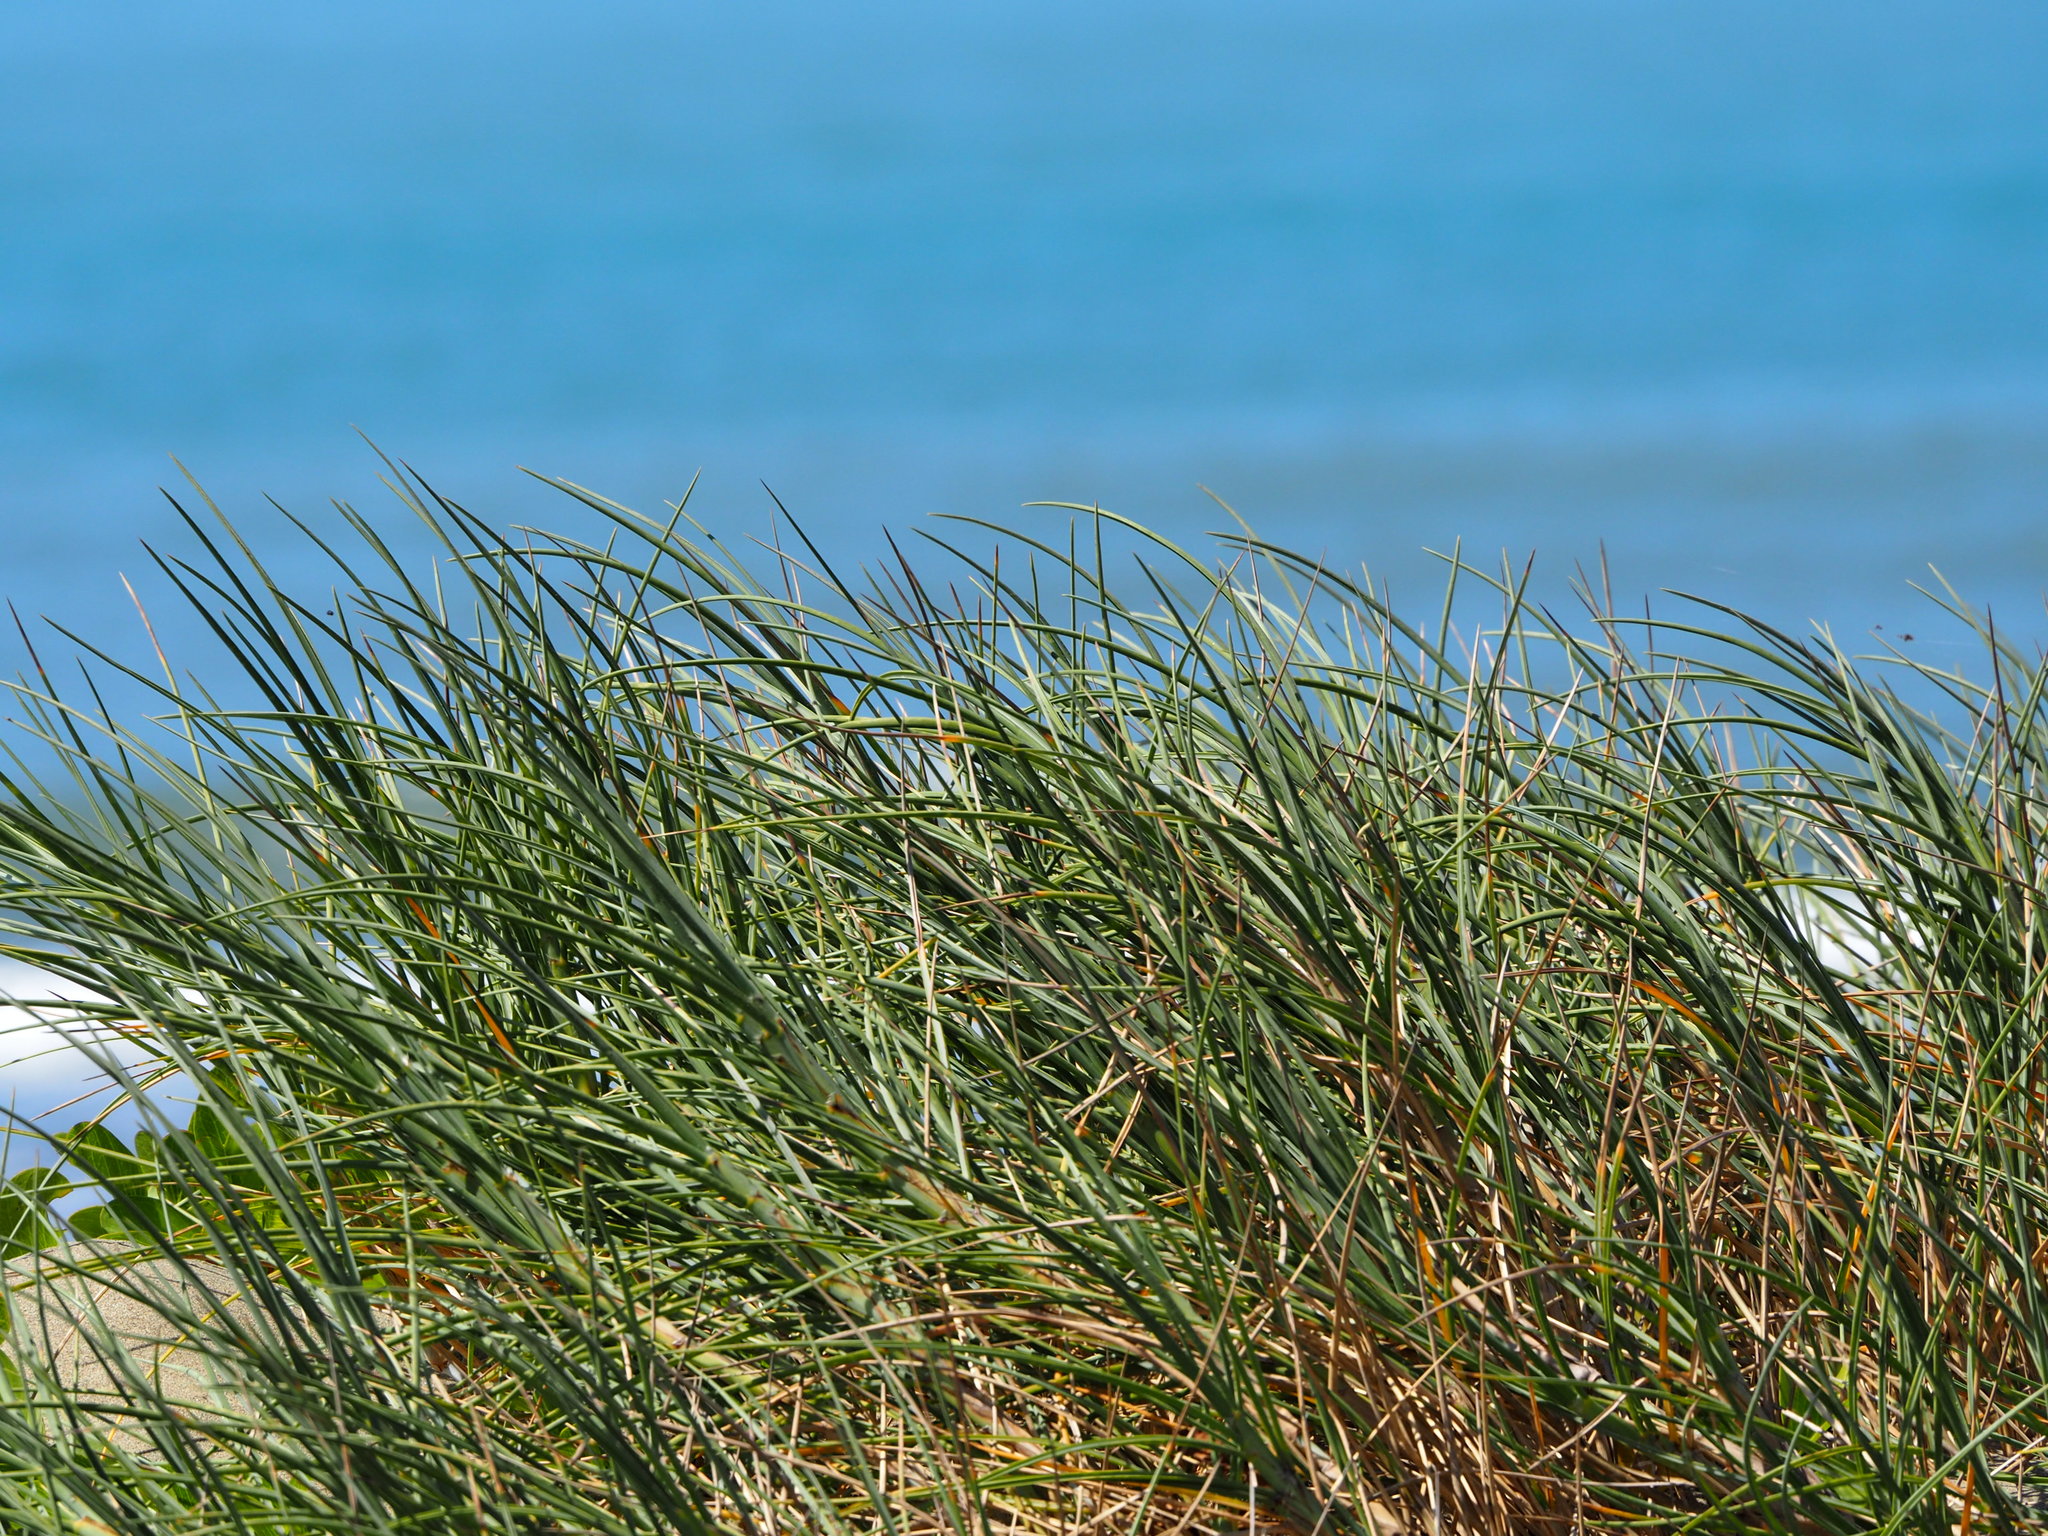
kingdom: Plantae
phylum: Tracheophyta
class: Liliopsida
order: Poales
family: Poaceae
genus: Spinifex
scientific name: Spinifex littoreus
